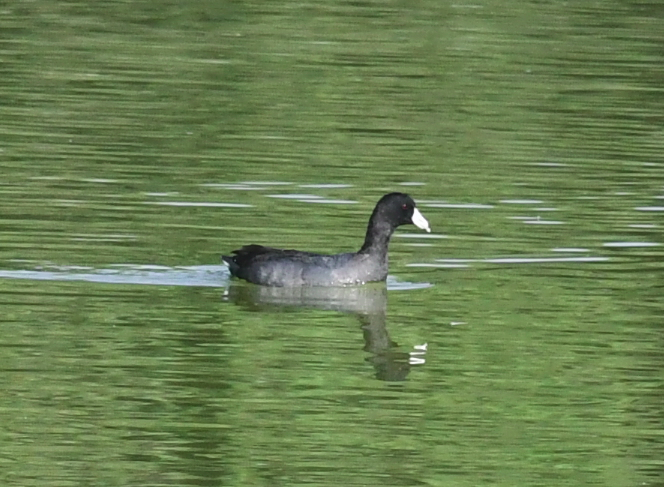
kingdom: Animalia
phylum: Chordata
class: Aves
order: Gruiformes
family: Rallidae
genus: Fulica
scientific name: Fulica americana
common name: American coot
